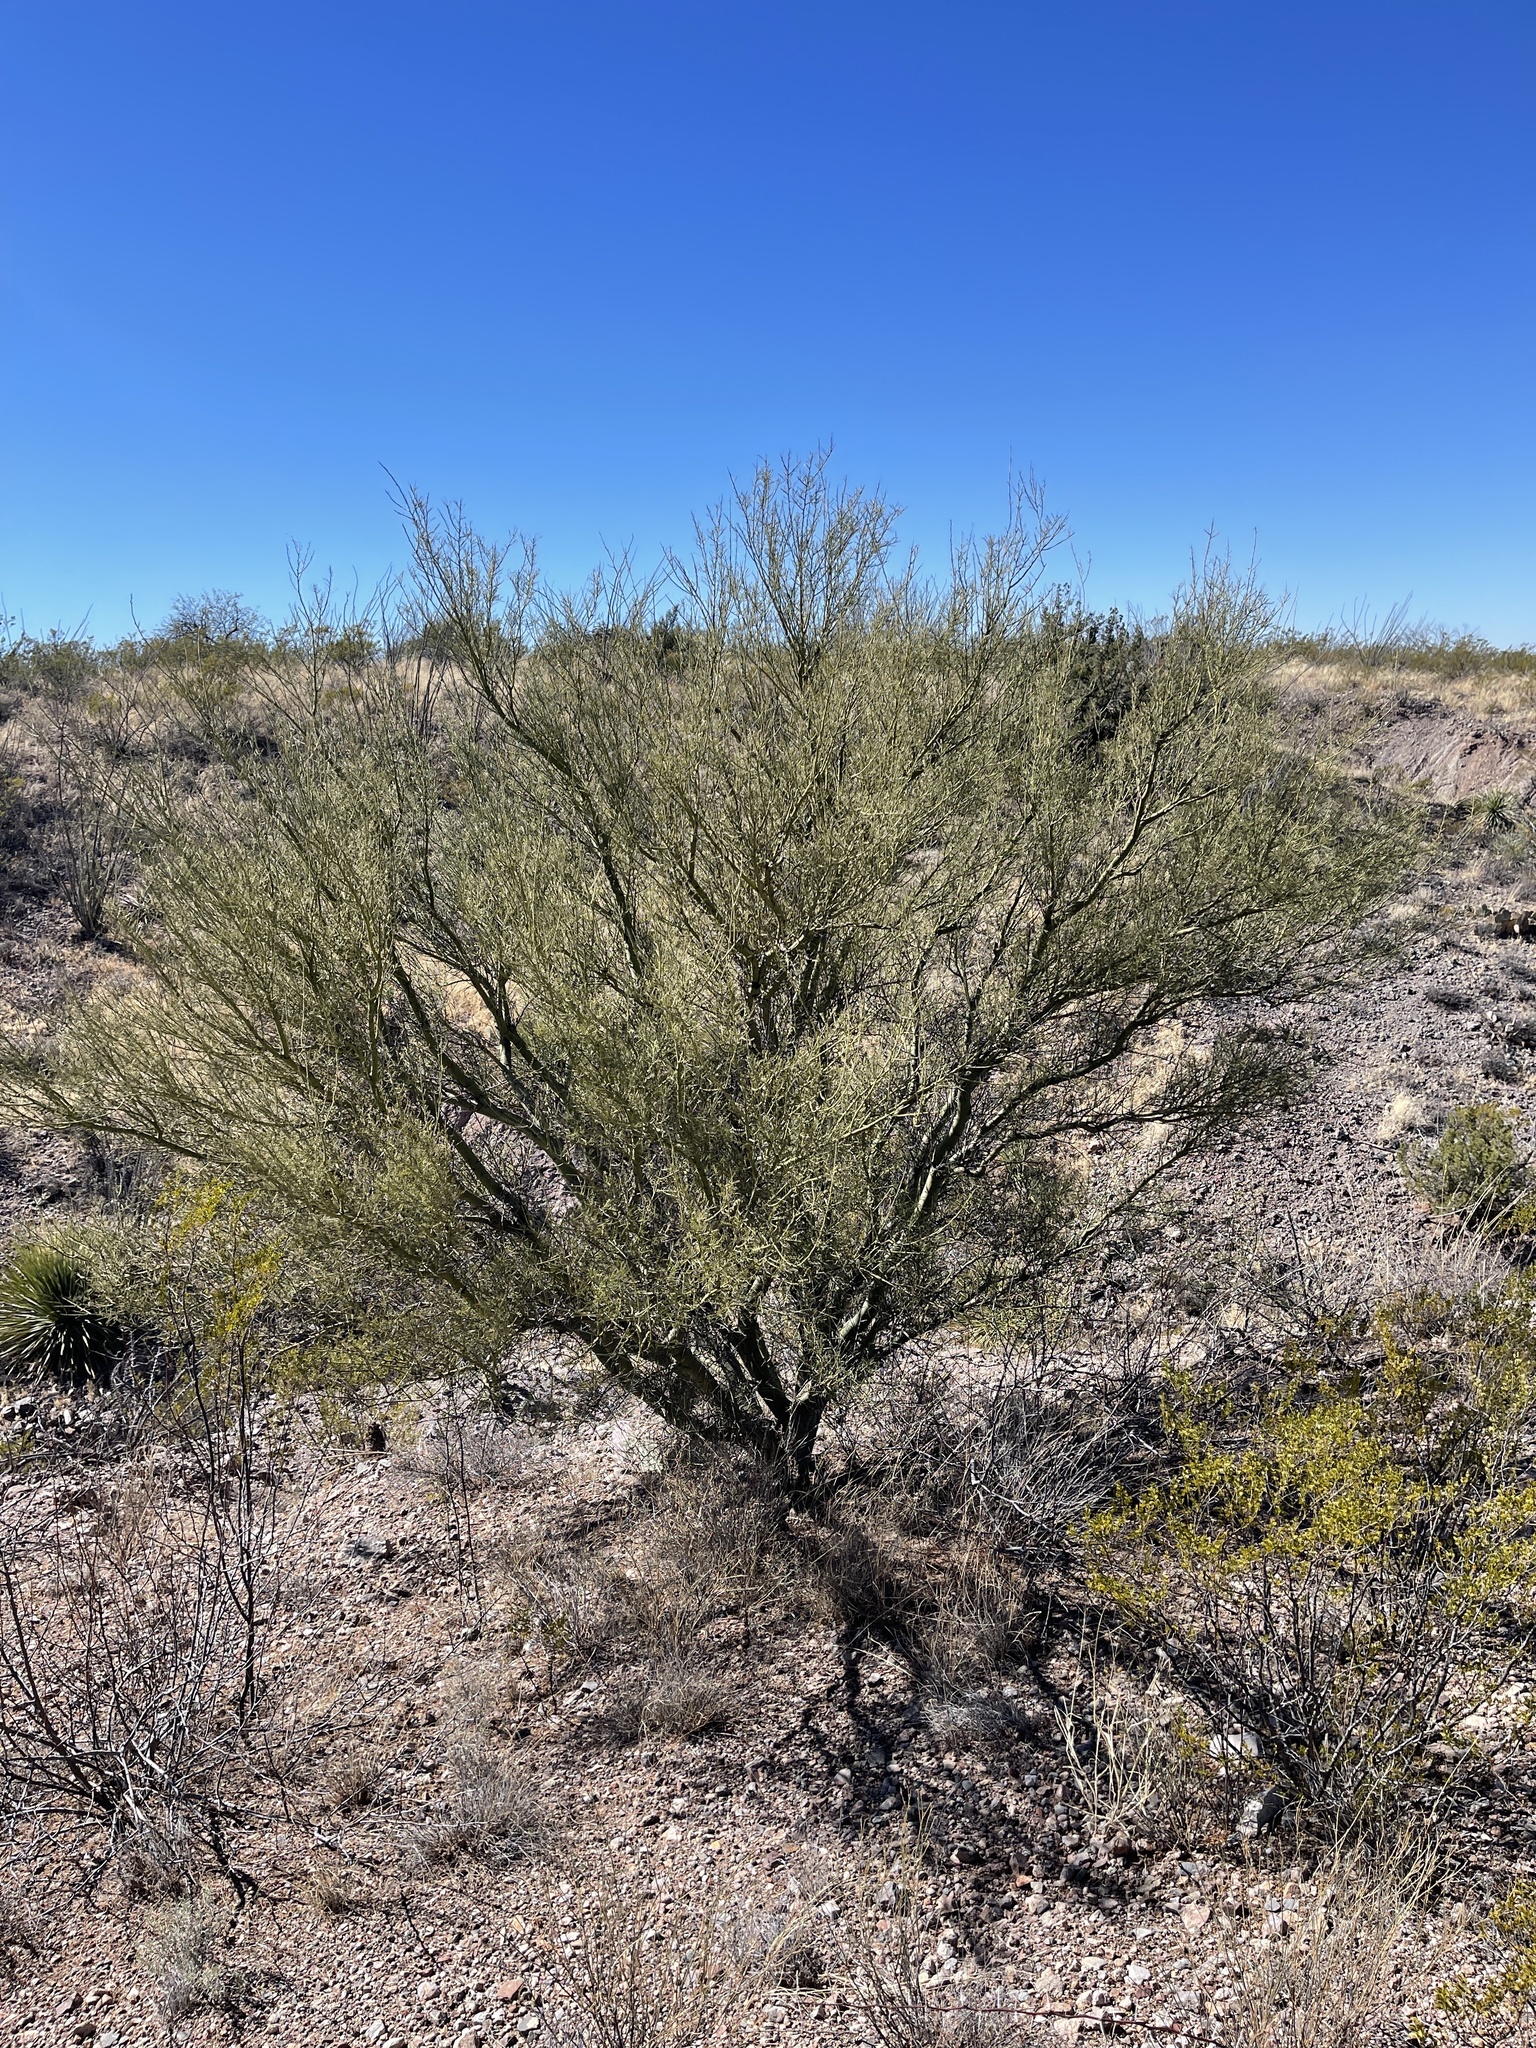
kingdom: Plantae
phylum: Tracheophyta
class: Magnoliopsida
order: Fabales
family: Fabaceae
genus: Parkinsonia
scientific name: Parkinsonia microphylla
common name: Yellow paloverde
